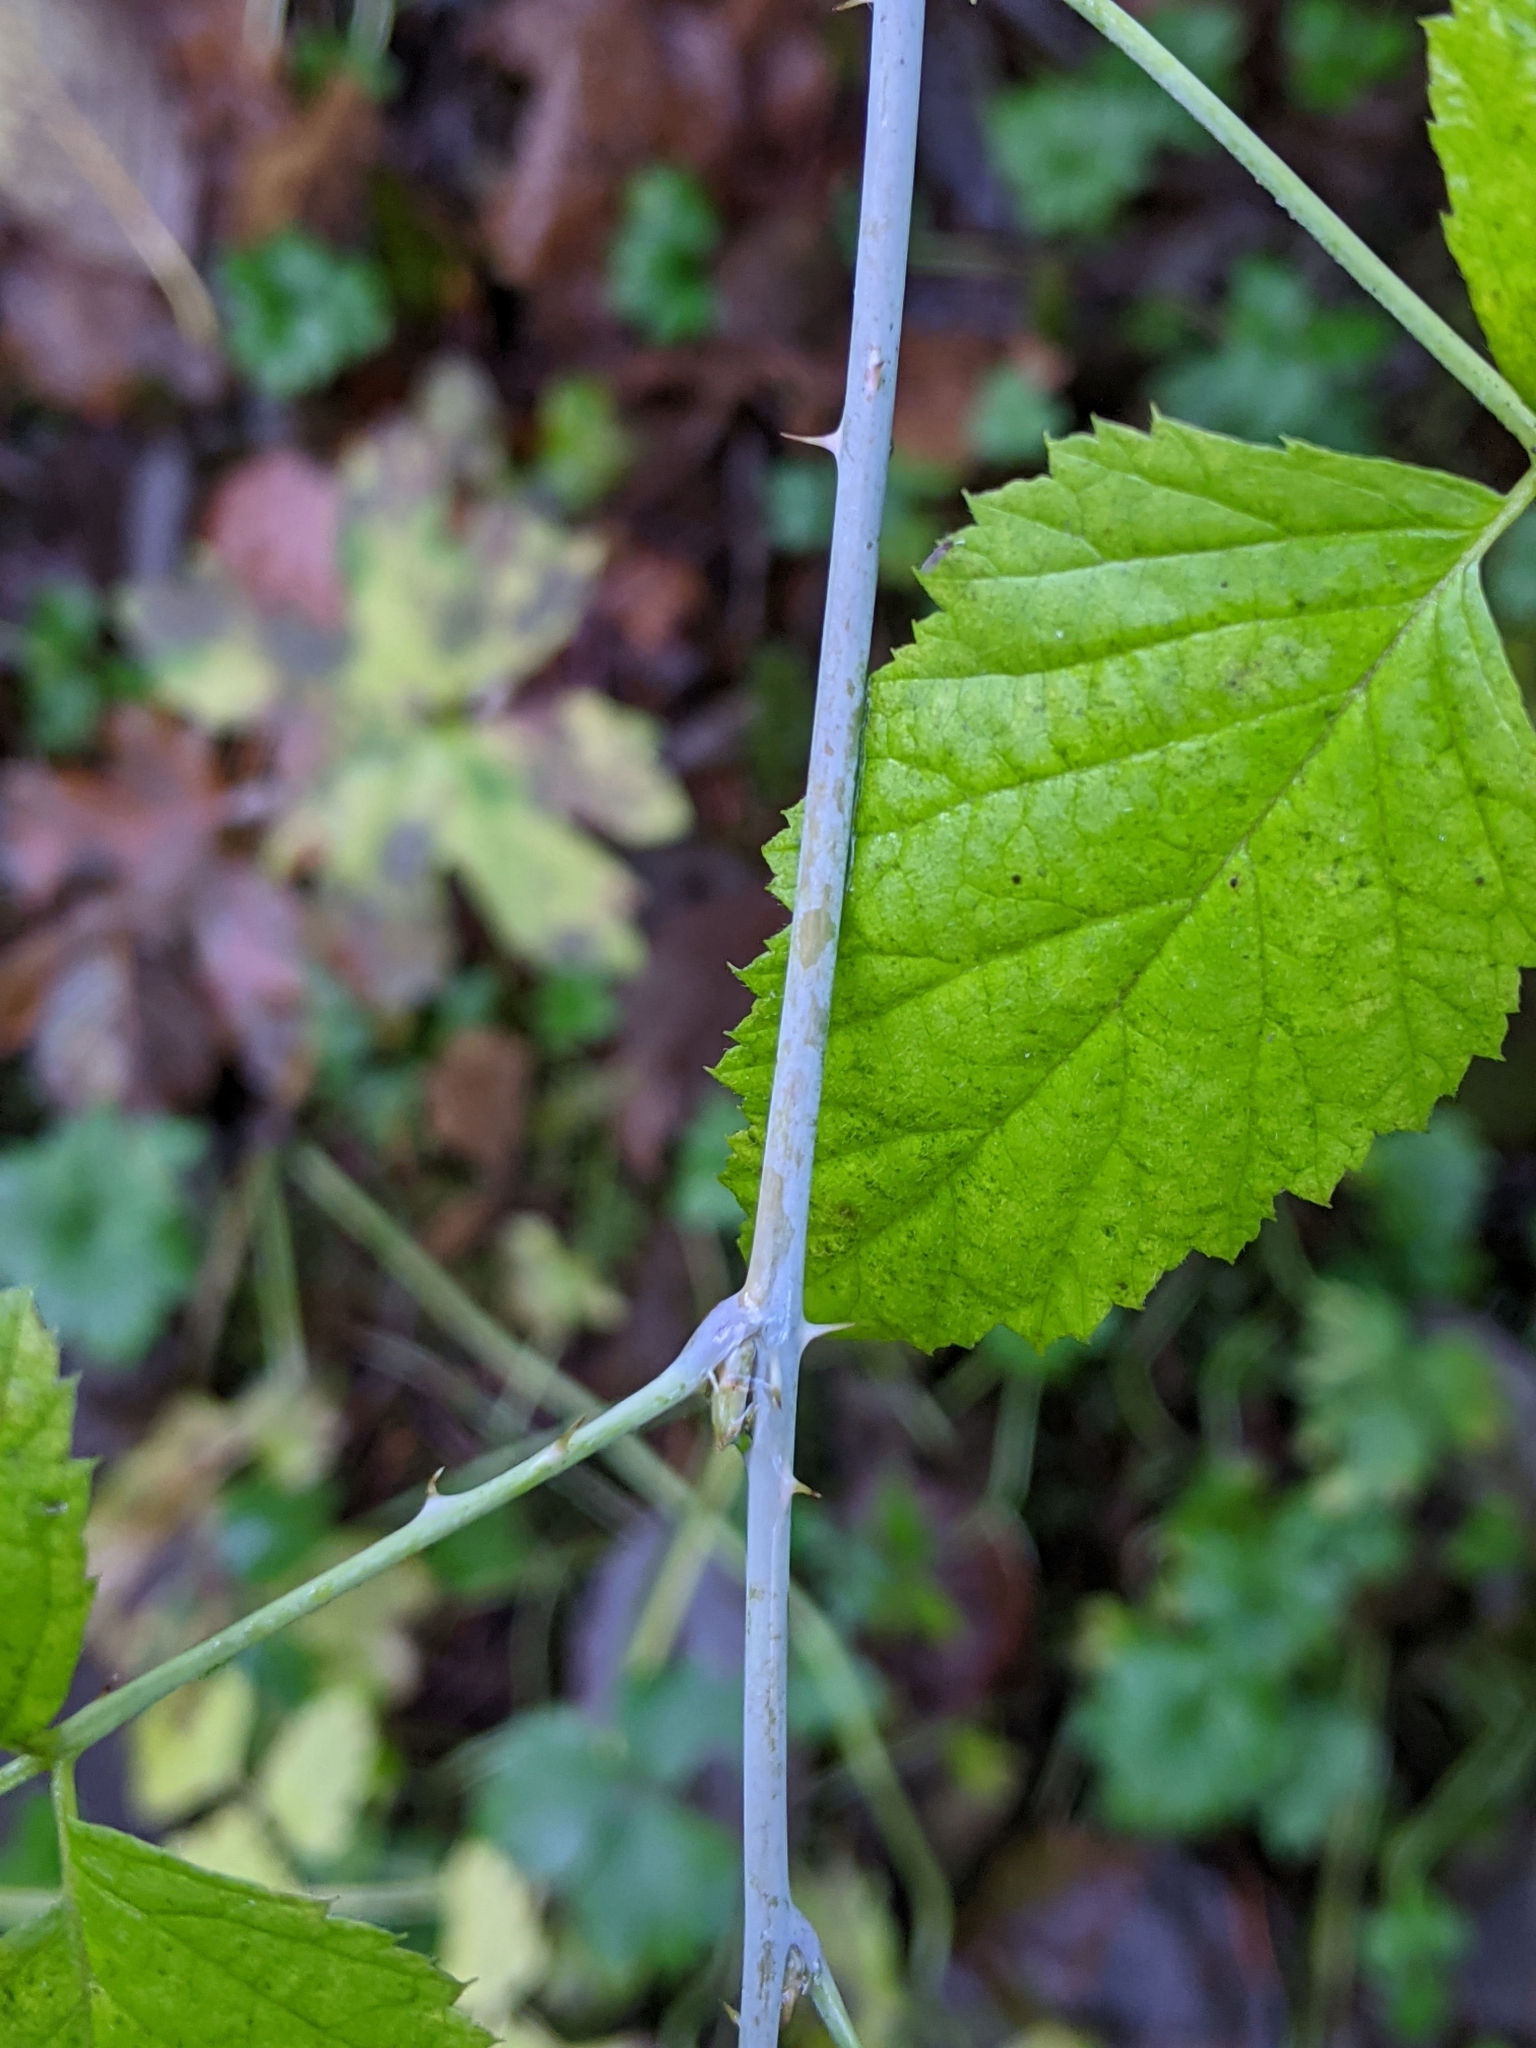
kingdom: Plantae
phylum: Tracheophyta
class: Magnoliopsida
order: Rosales
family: Rosaceae
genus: Rubus
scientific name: Rubus leucodermis
